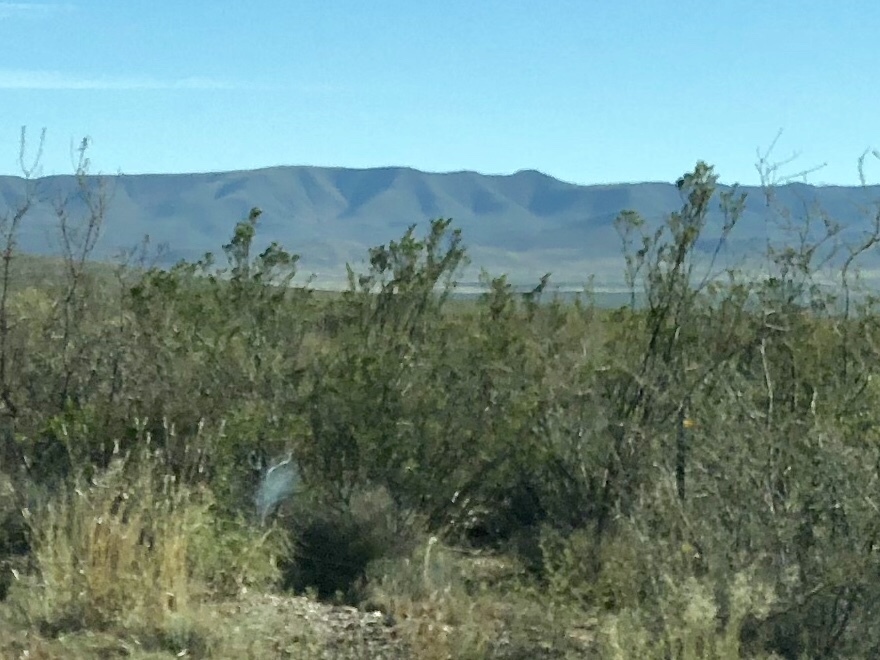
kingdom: Plantae
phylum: Tracheophyta
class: Magnoliopsida
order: Zygophyllales
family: Zygophyllaceae
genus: Larrea
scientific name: Larrea tridentata
